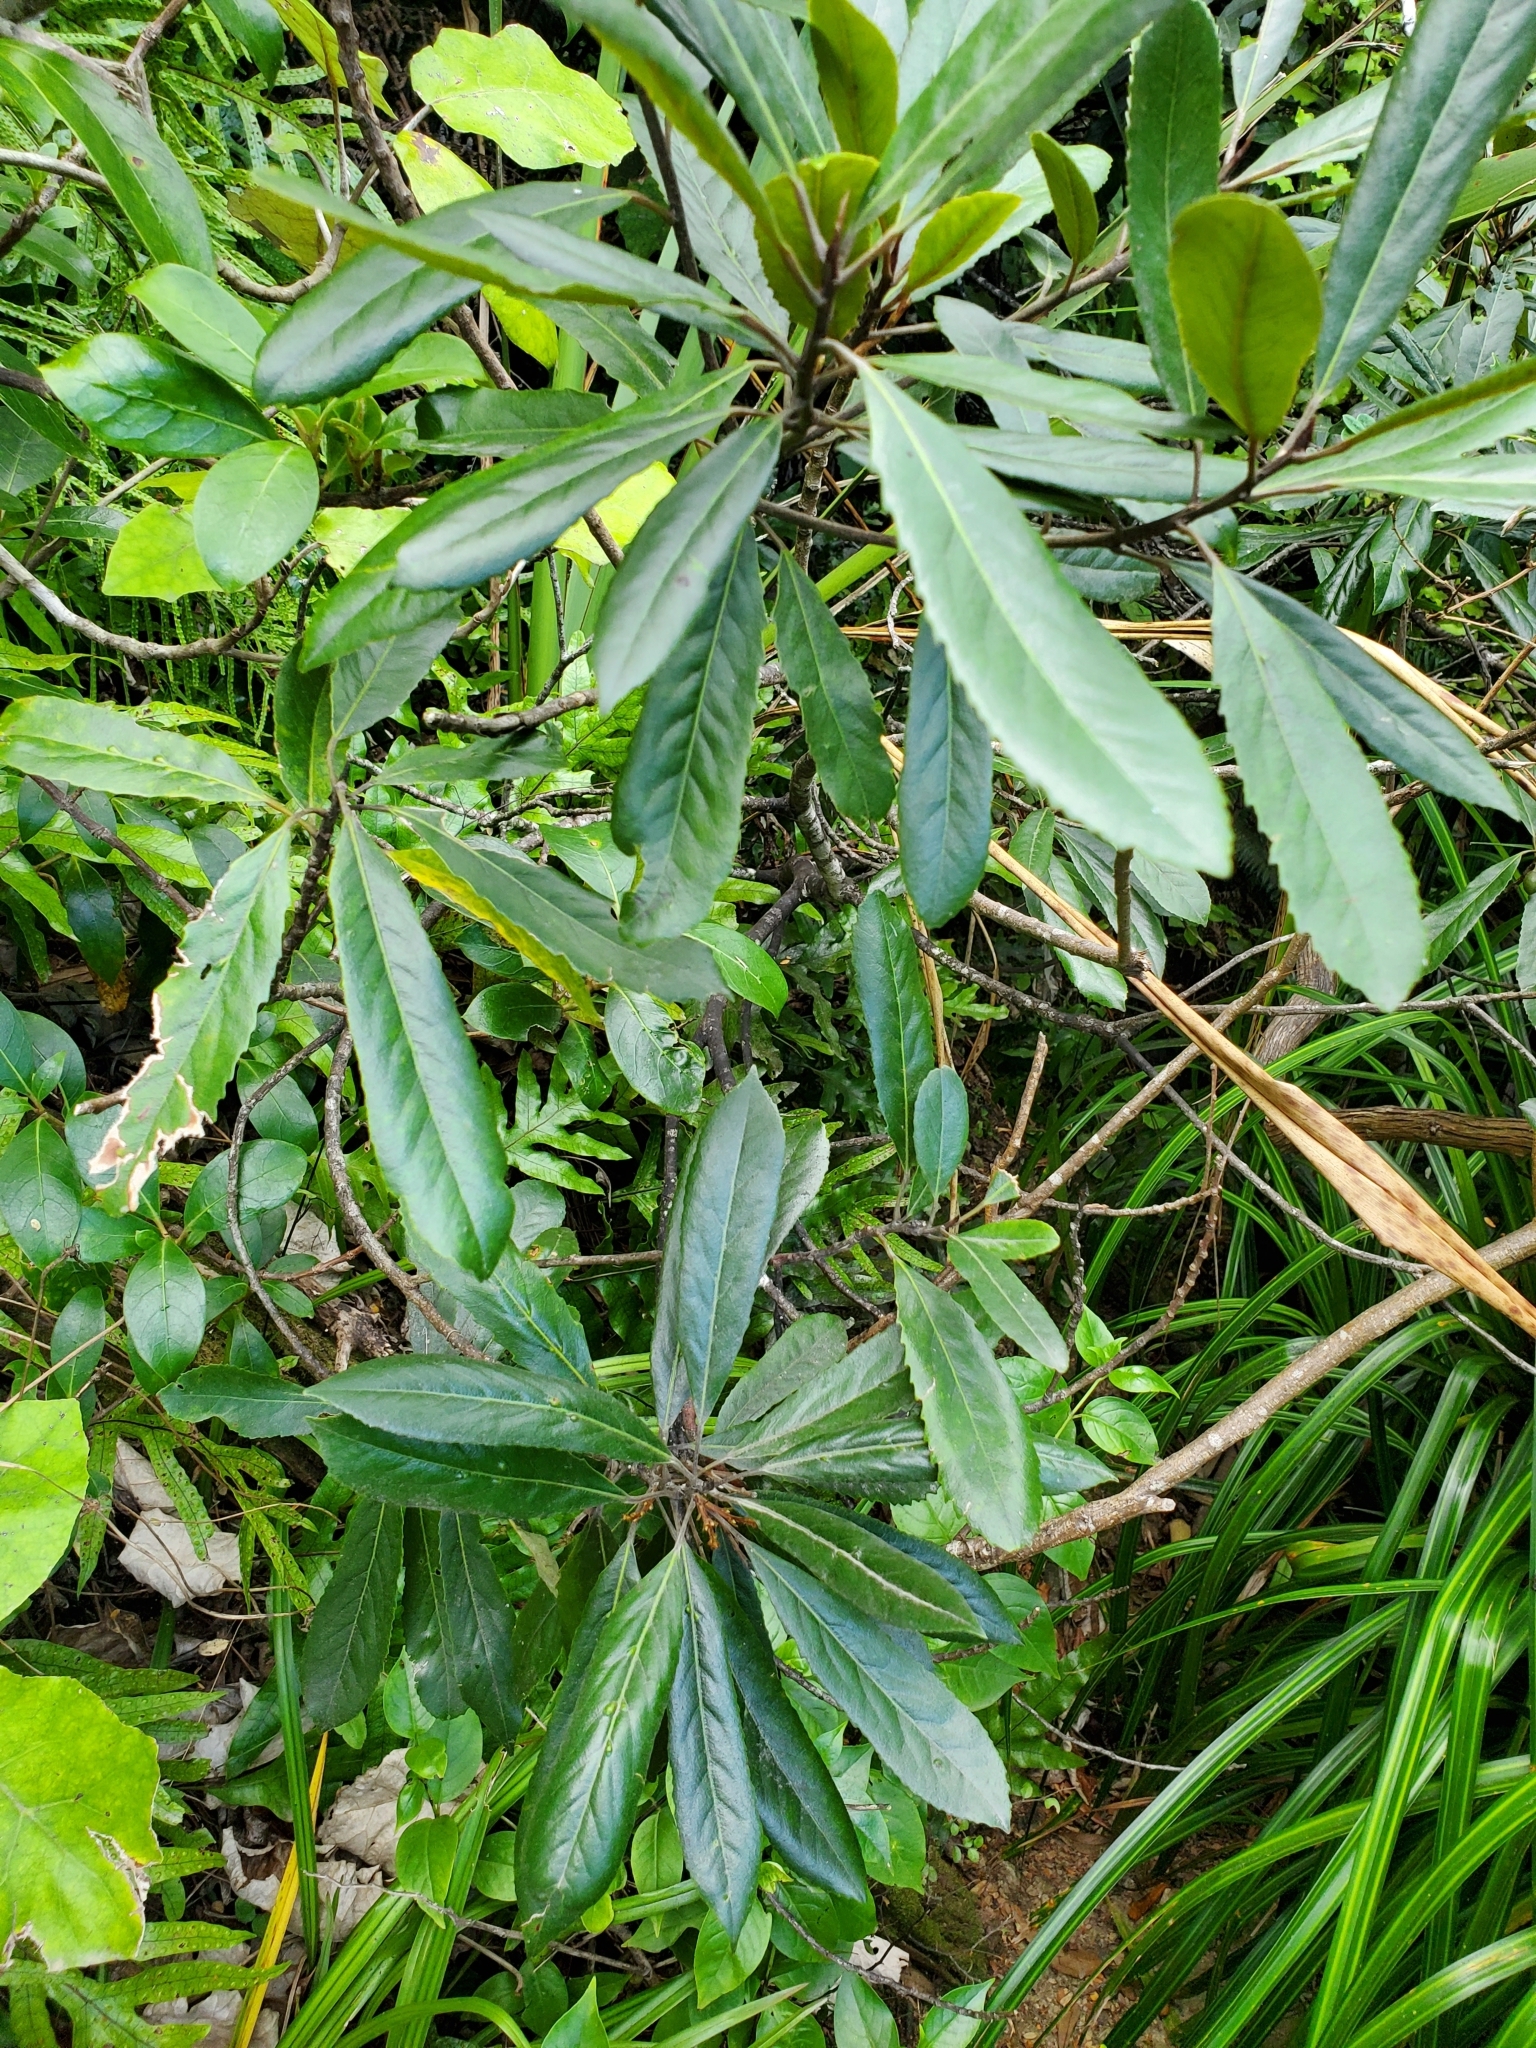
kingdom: Plantae
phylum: Tracheophyta
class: Magnoliopsida
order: Oxalidales
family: Elaeocarpaceae
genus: Elaeocarpus
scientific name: Elaeocarpus dentatus
